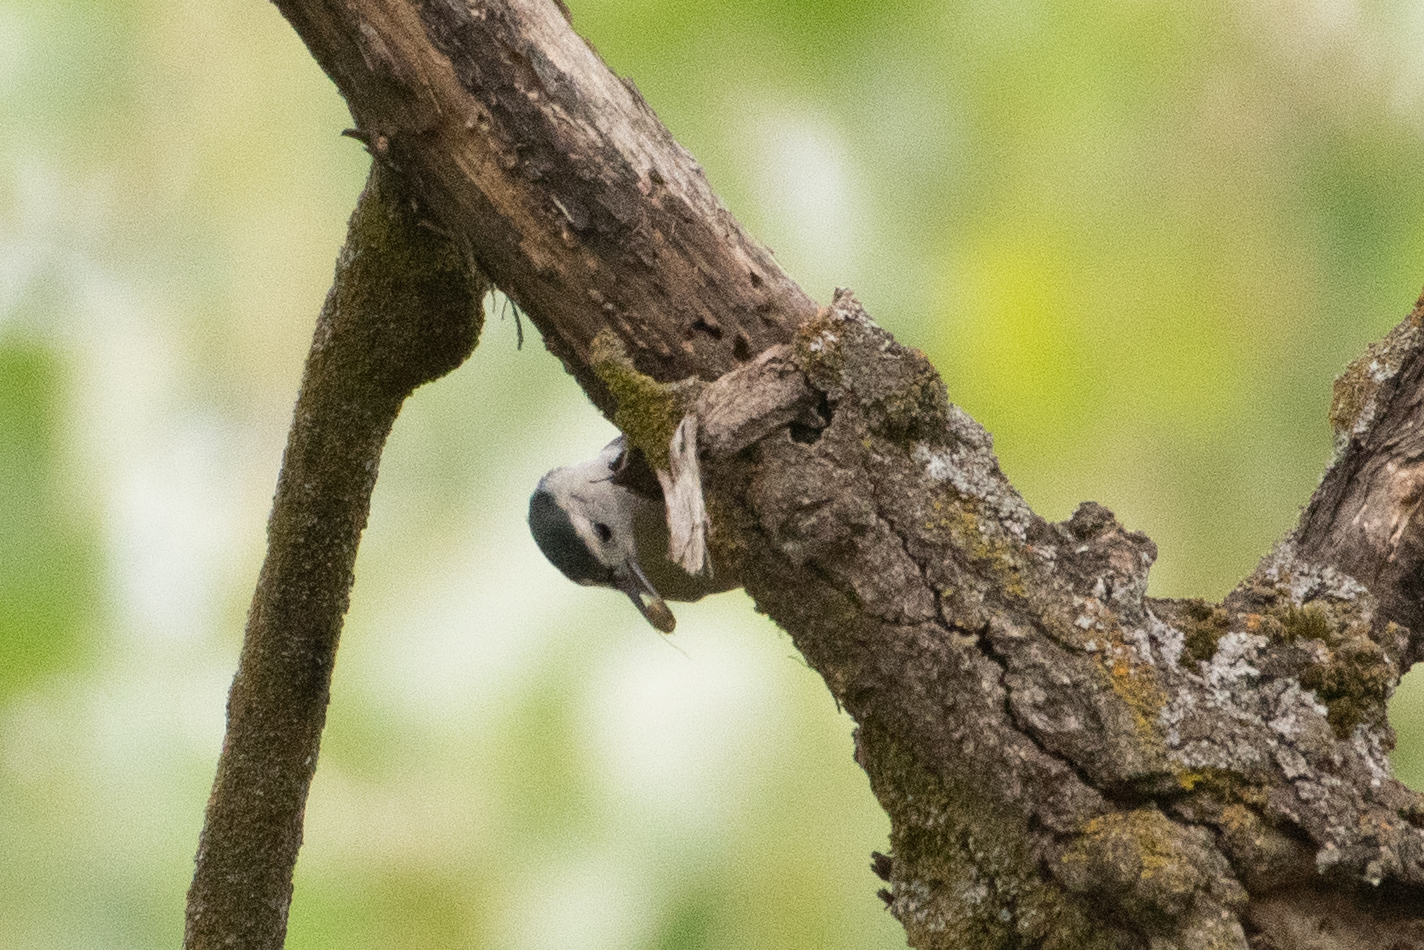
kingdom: Animalia
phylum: Chordata
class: Aves
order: Passeriformes
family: Sittidae
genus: Sitta
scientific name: Sitta carolinensis
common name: White-breasted nuthatch
